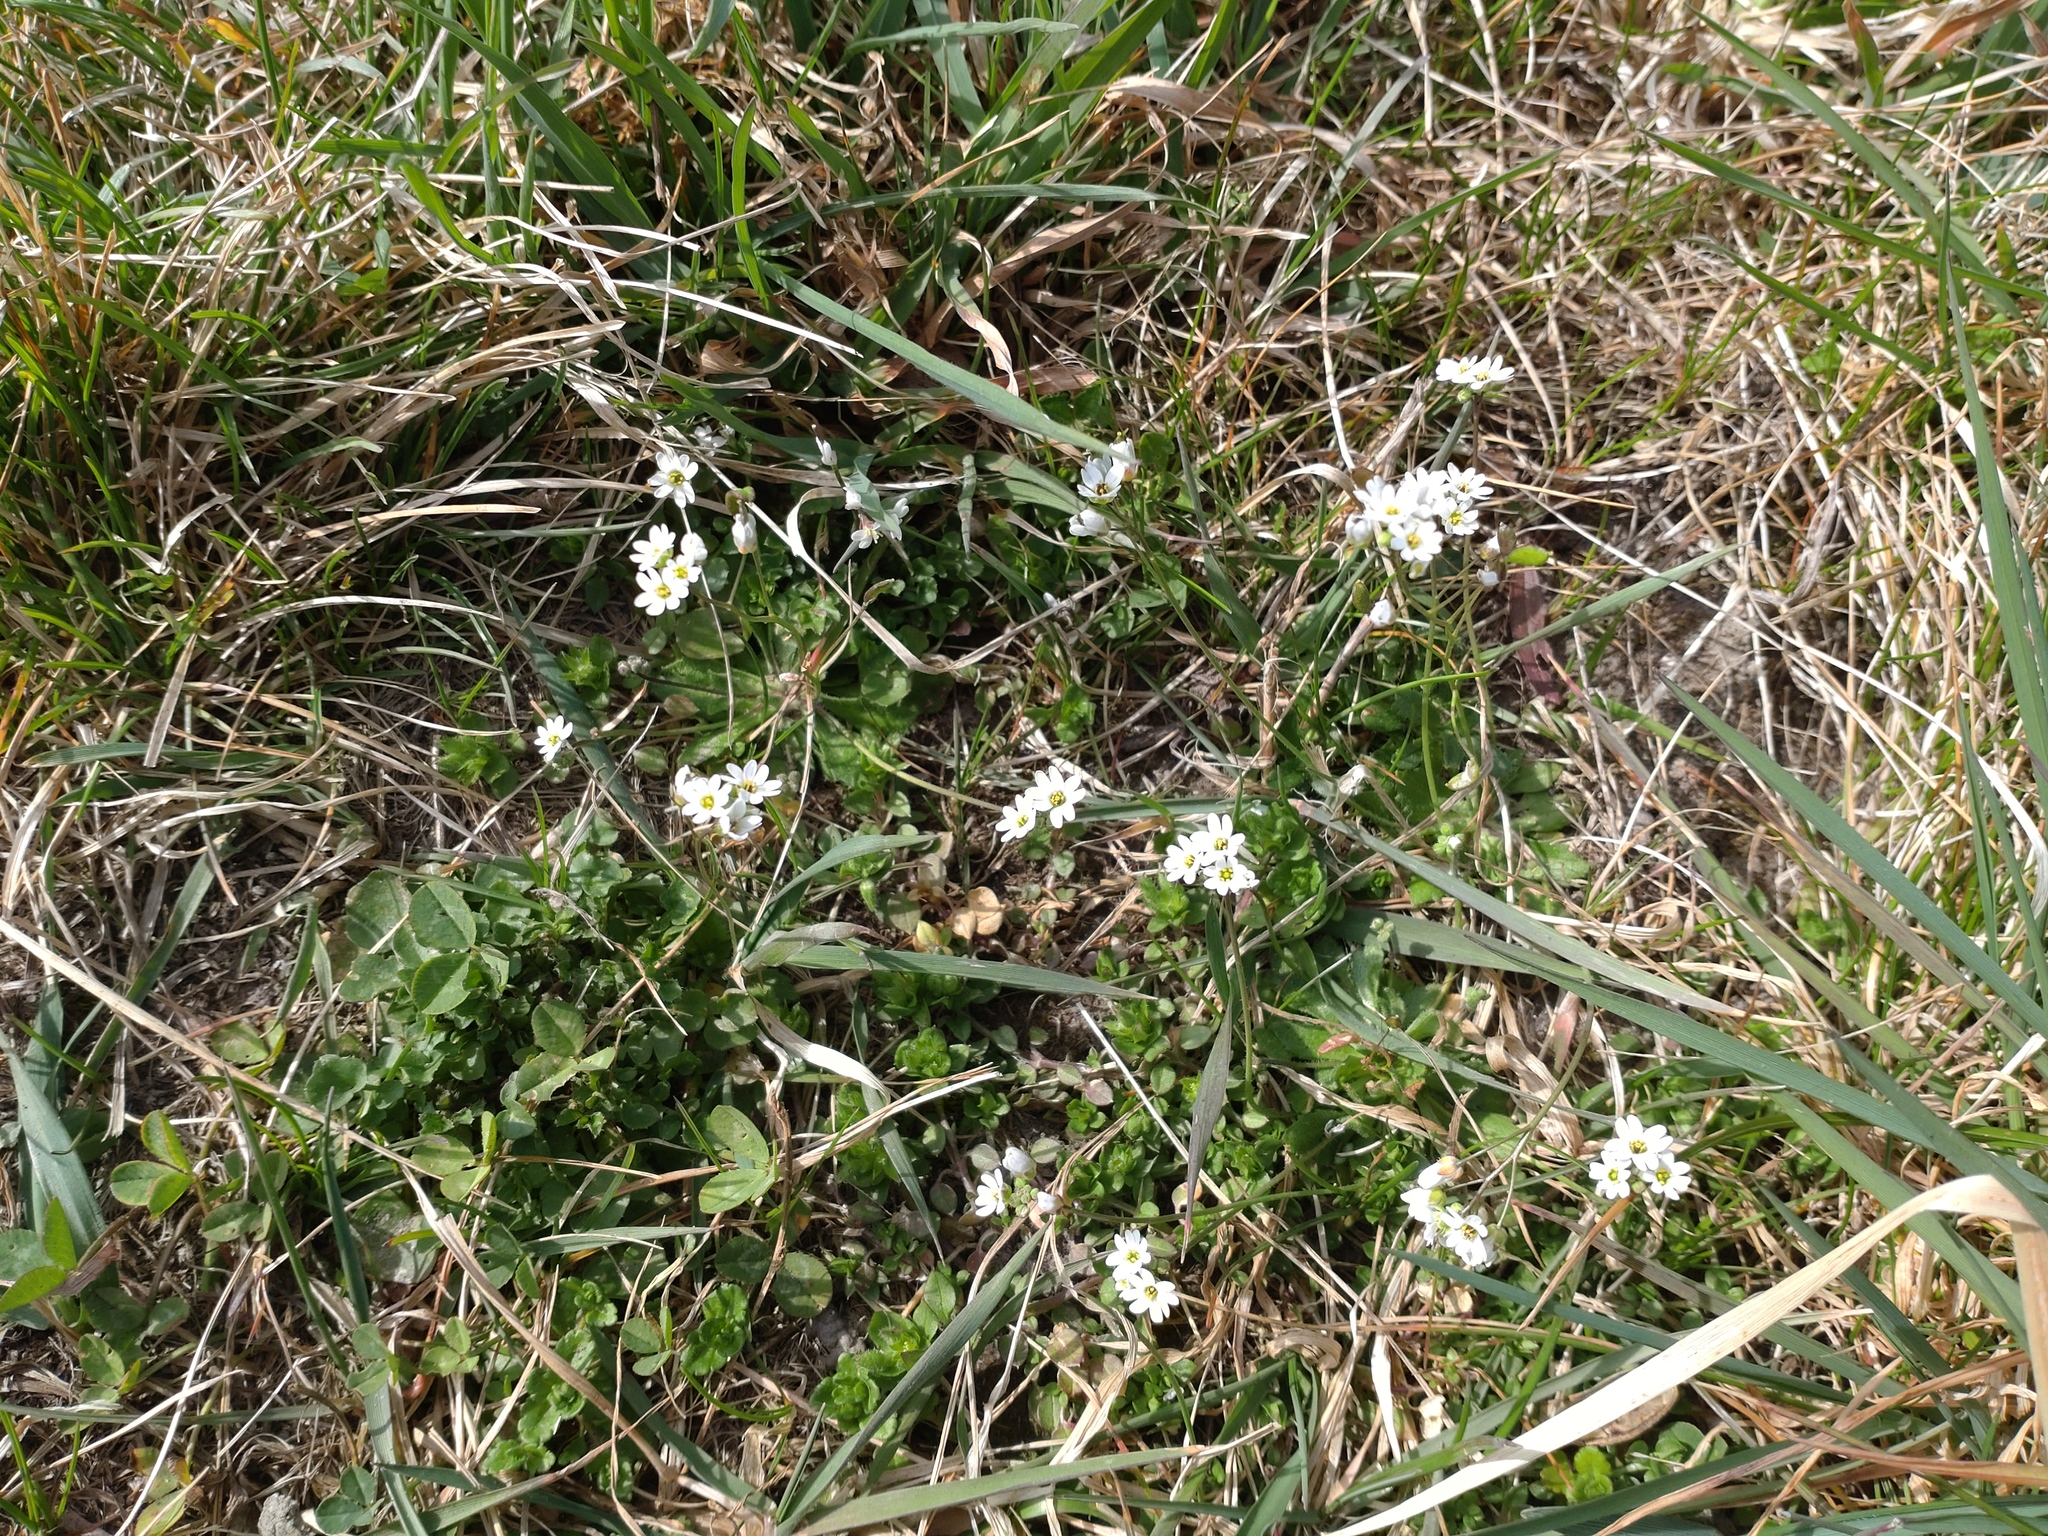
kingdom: Plantae
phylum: Tracheophyta
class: Magnoliopsida
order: Brassicales
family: Brassicaceae
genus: Draba
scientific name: Draba verna
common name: Spring draba
